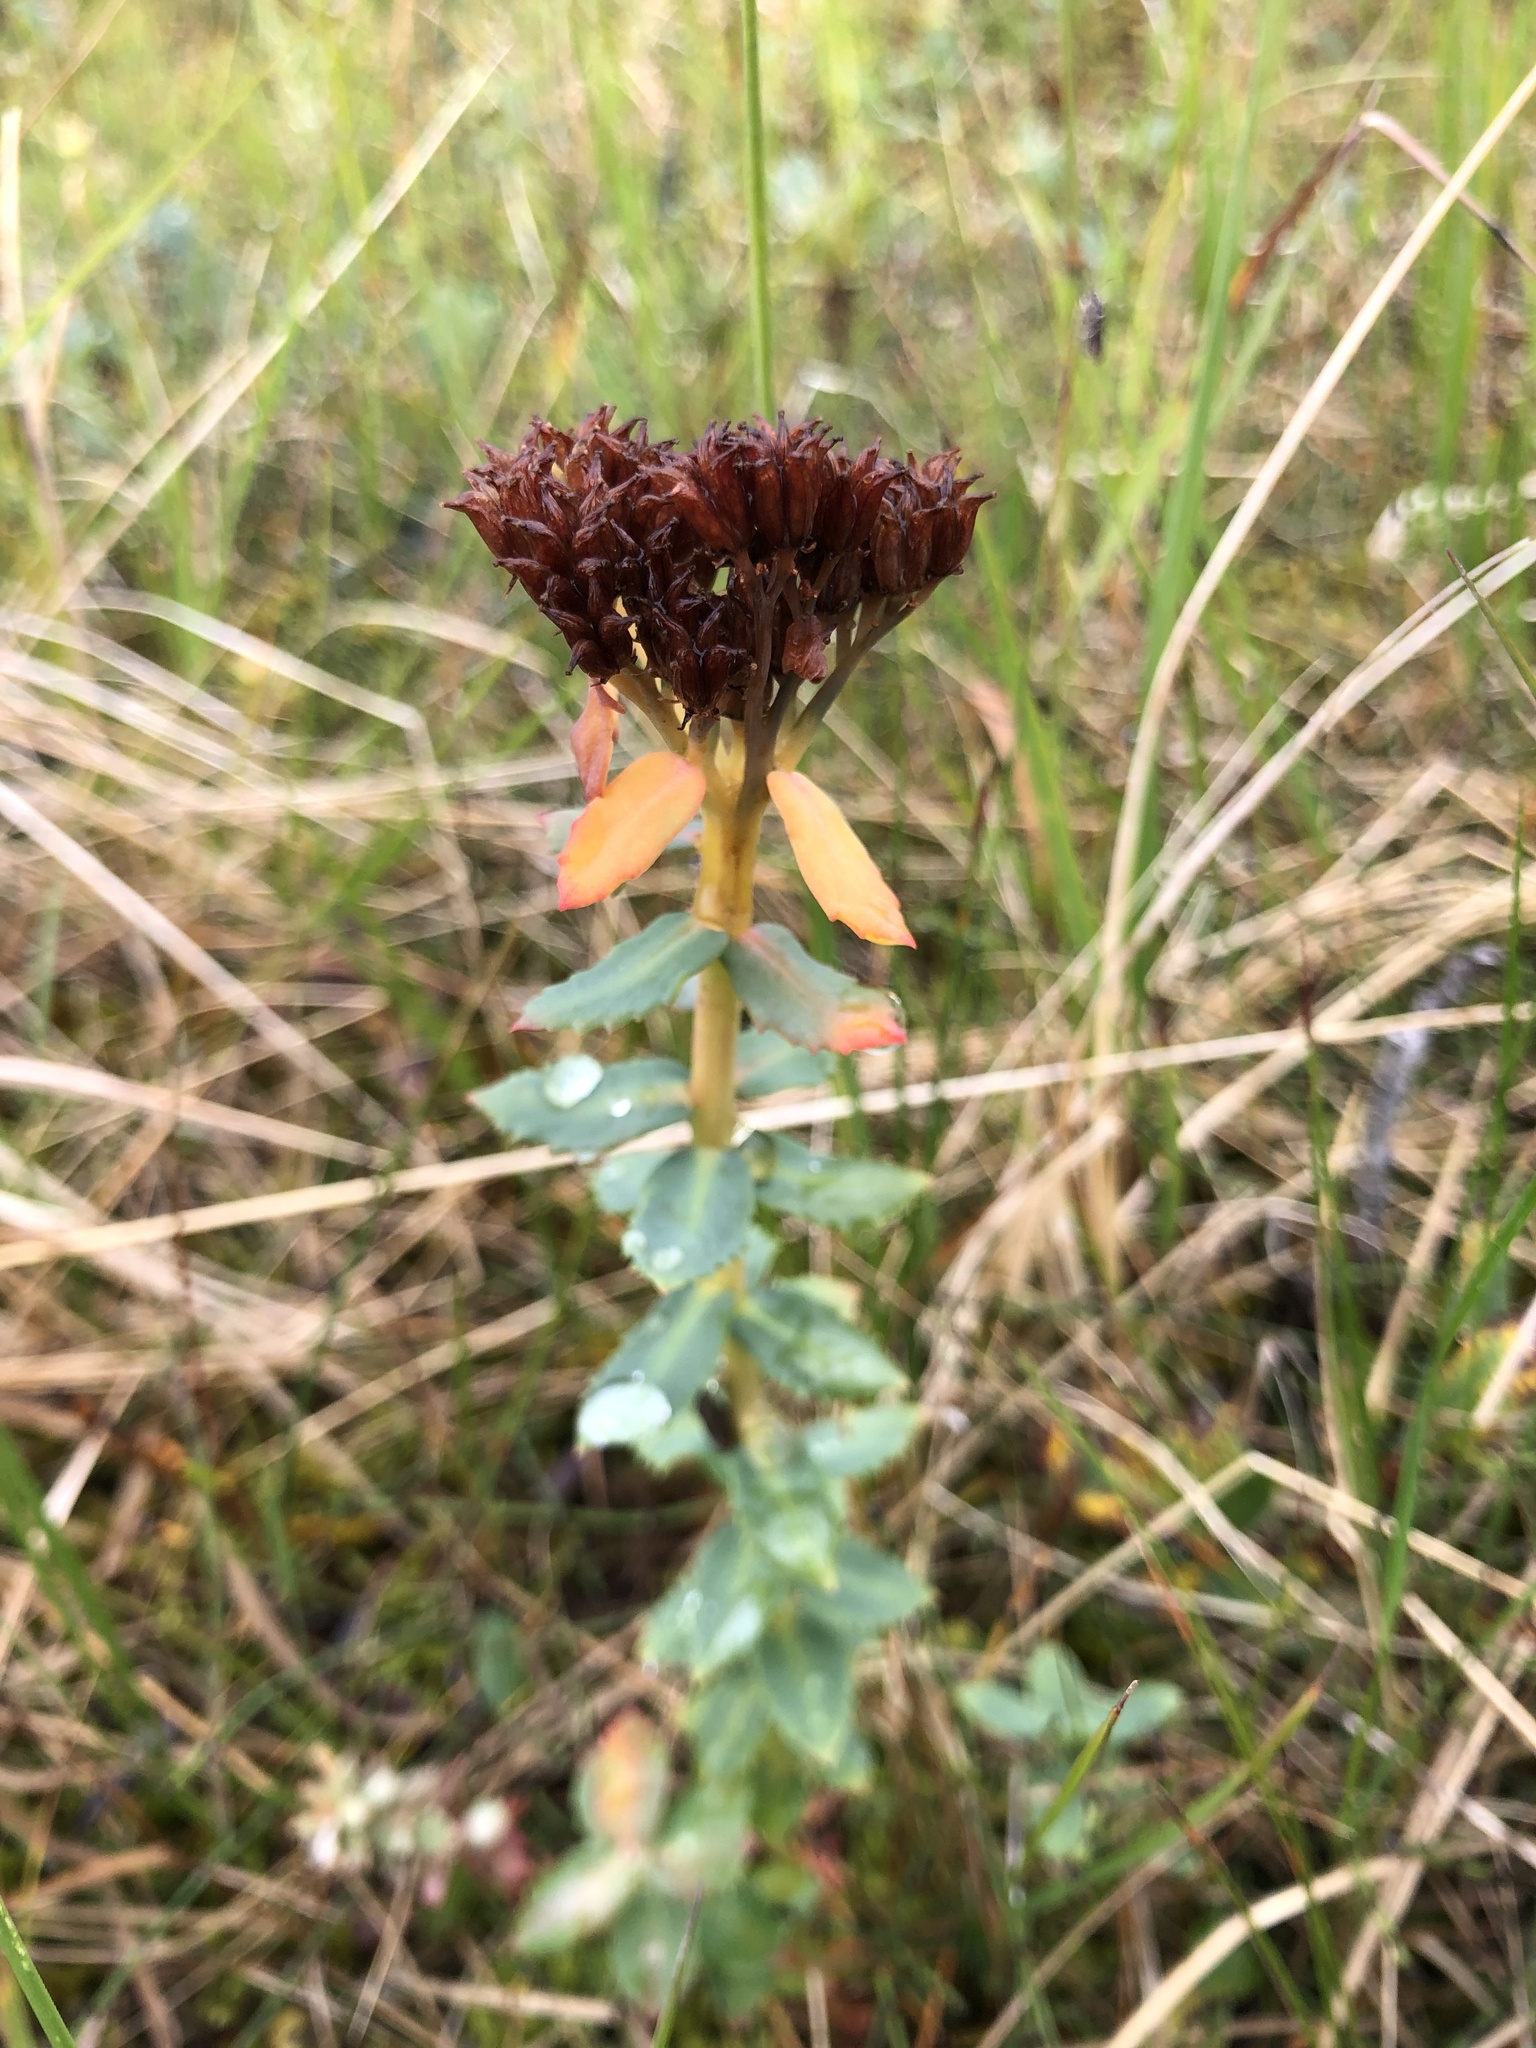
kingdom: Plantae
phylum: Tracheophyta
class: Magnoliopsida
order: Saxifragales
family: Crassulaceae
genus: Rhodiola
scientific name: Rhodiola rosea
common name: Roseroot
